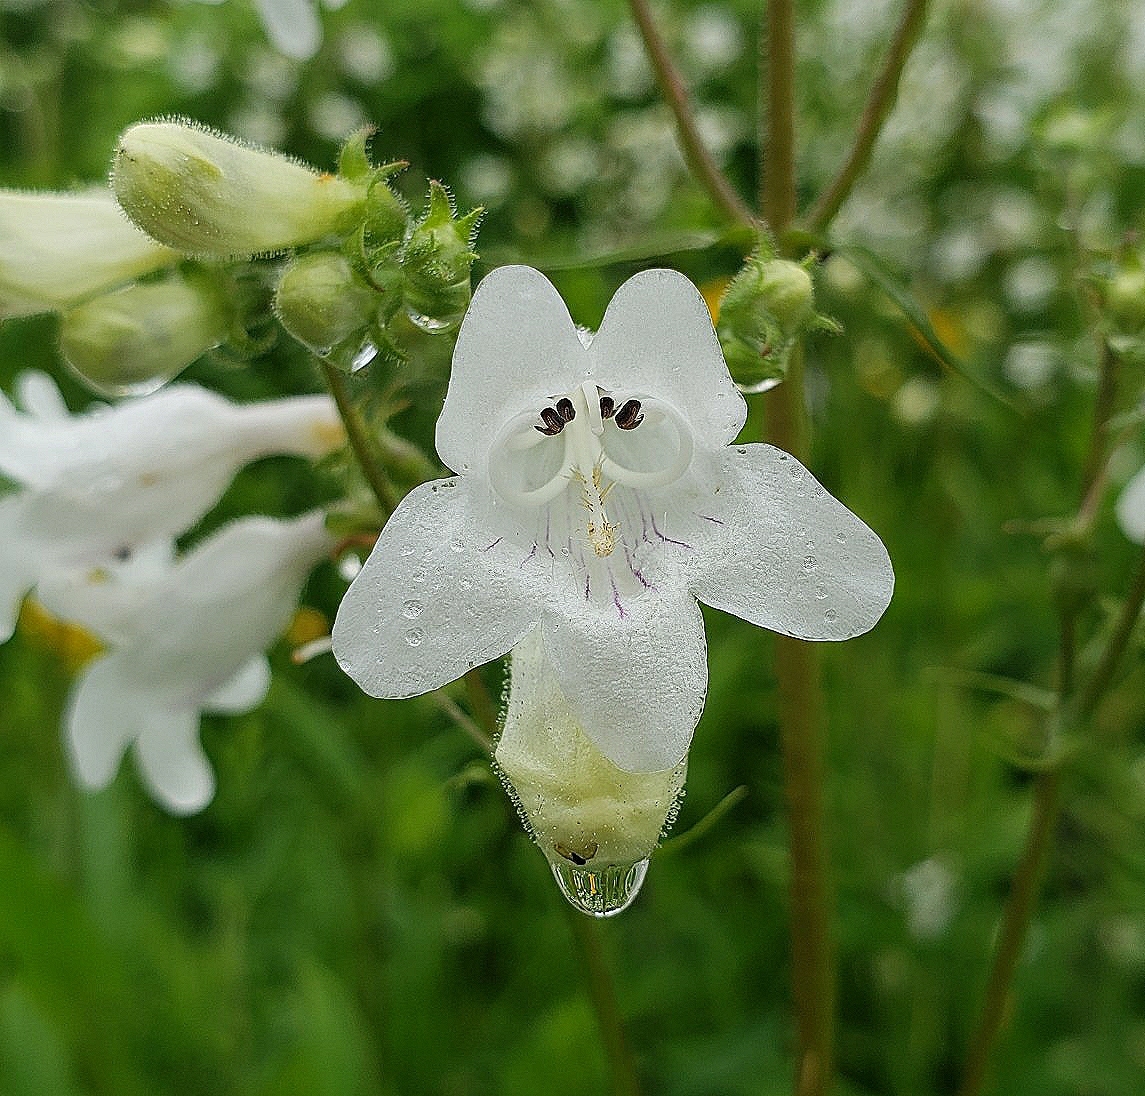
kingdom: Plantae
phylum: Tracheophyta
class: Magnoliopsida
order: Lamiales
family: Plantaginaceae
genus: Penstemon
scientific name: Penstemon digitalis
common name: Foxglove beardtongue
